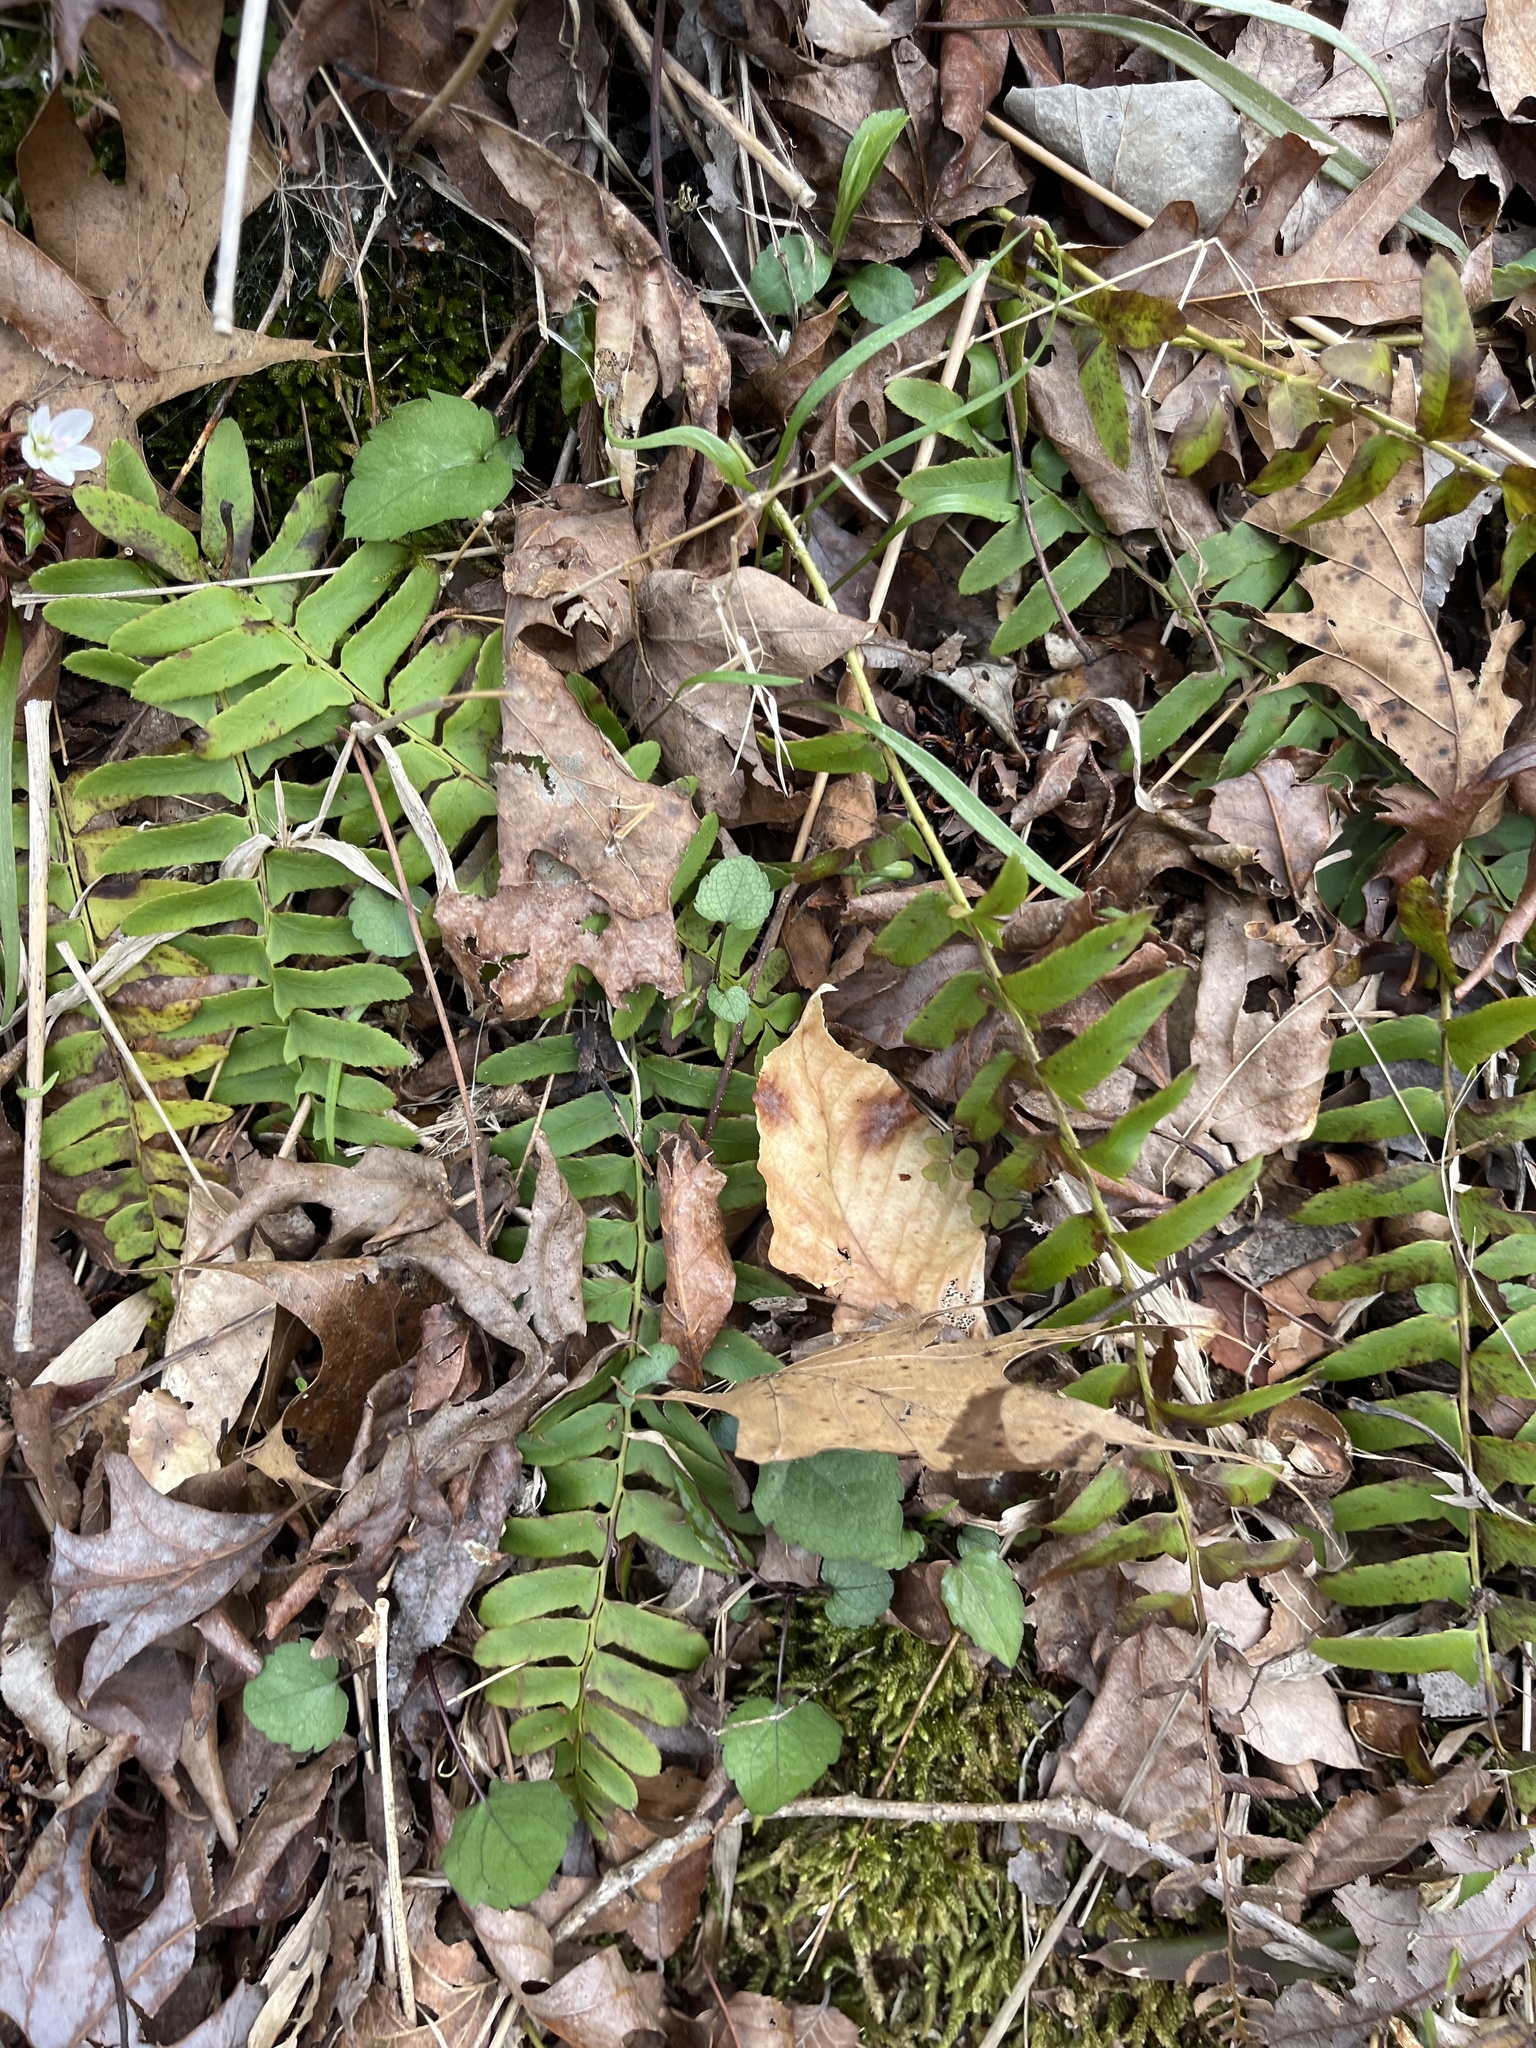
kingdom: Plantae
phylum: Tracheophyta
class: Polypodiopsida
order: Polypodiales
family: Dryopteridaceae
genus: Polystichum
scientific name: Polystichum acrostichoides
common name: Christmas fern
